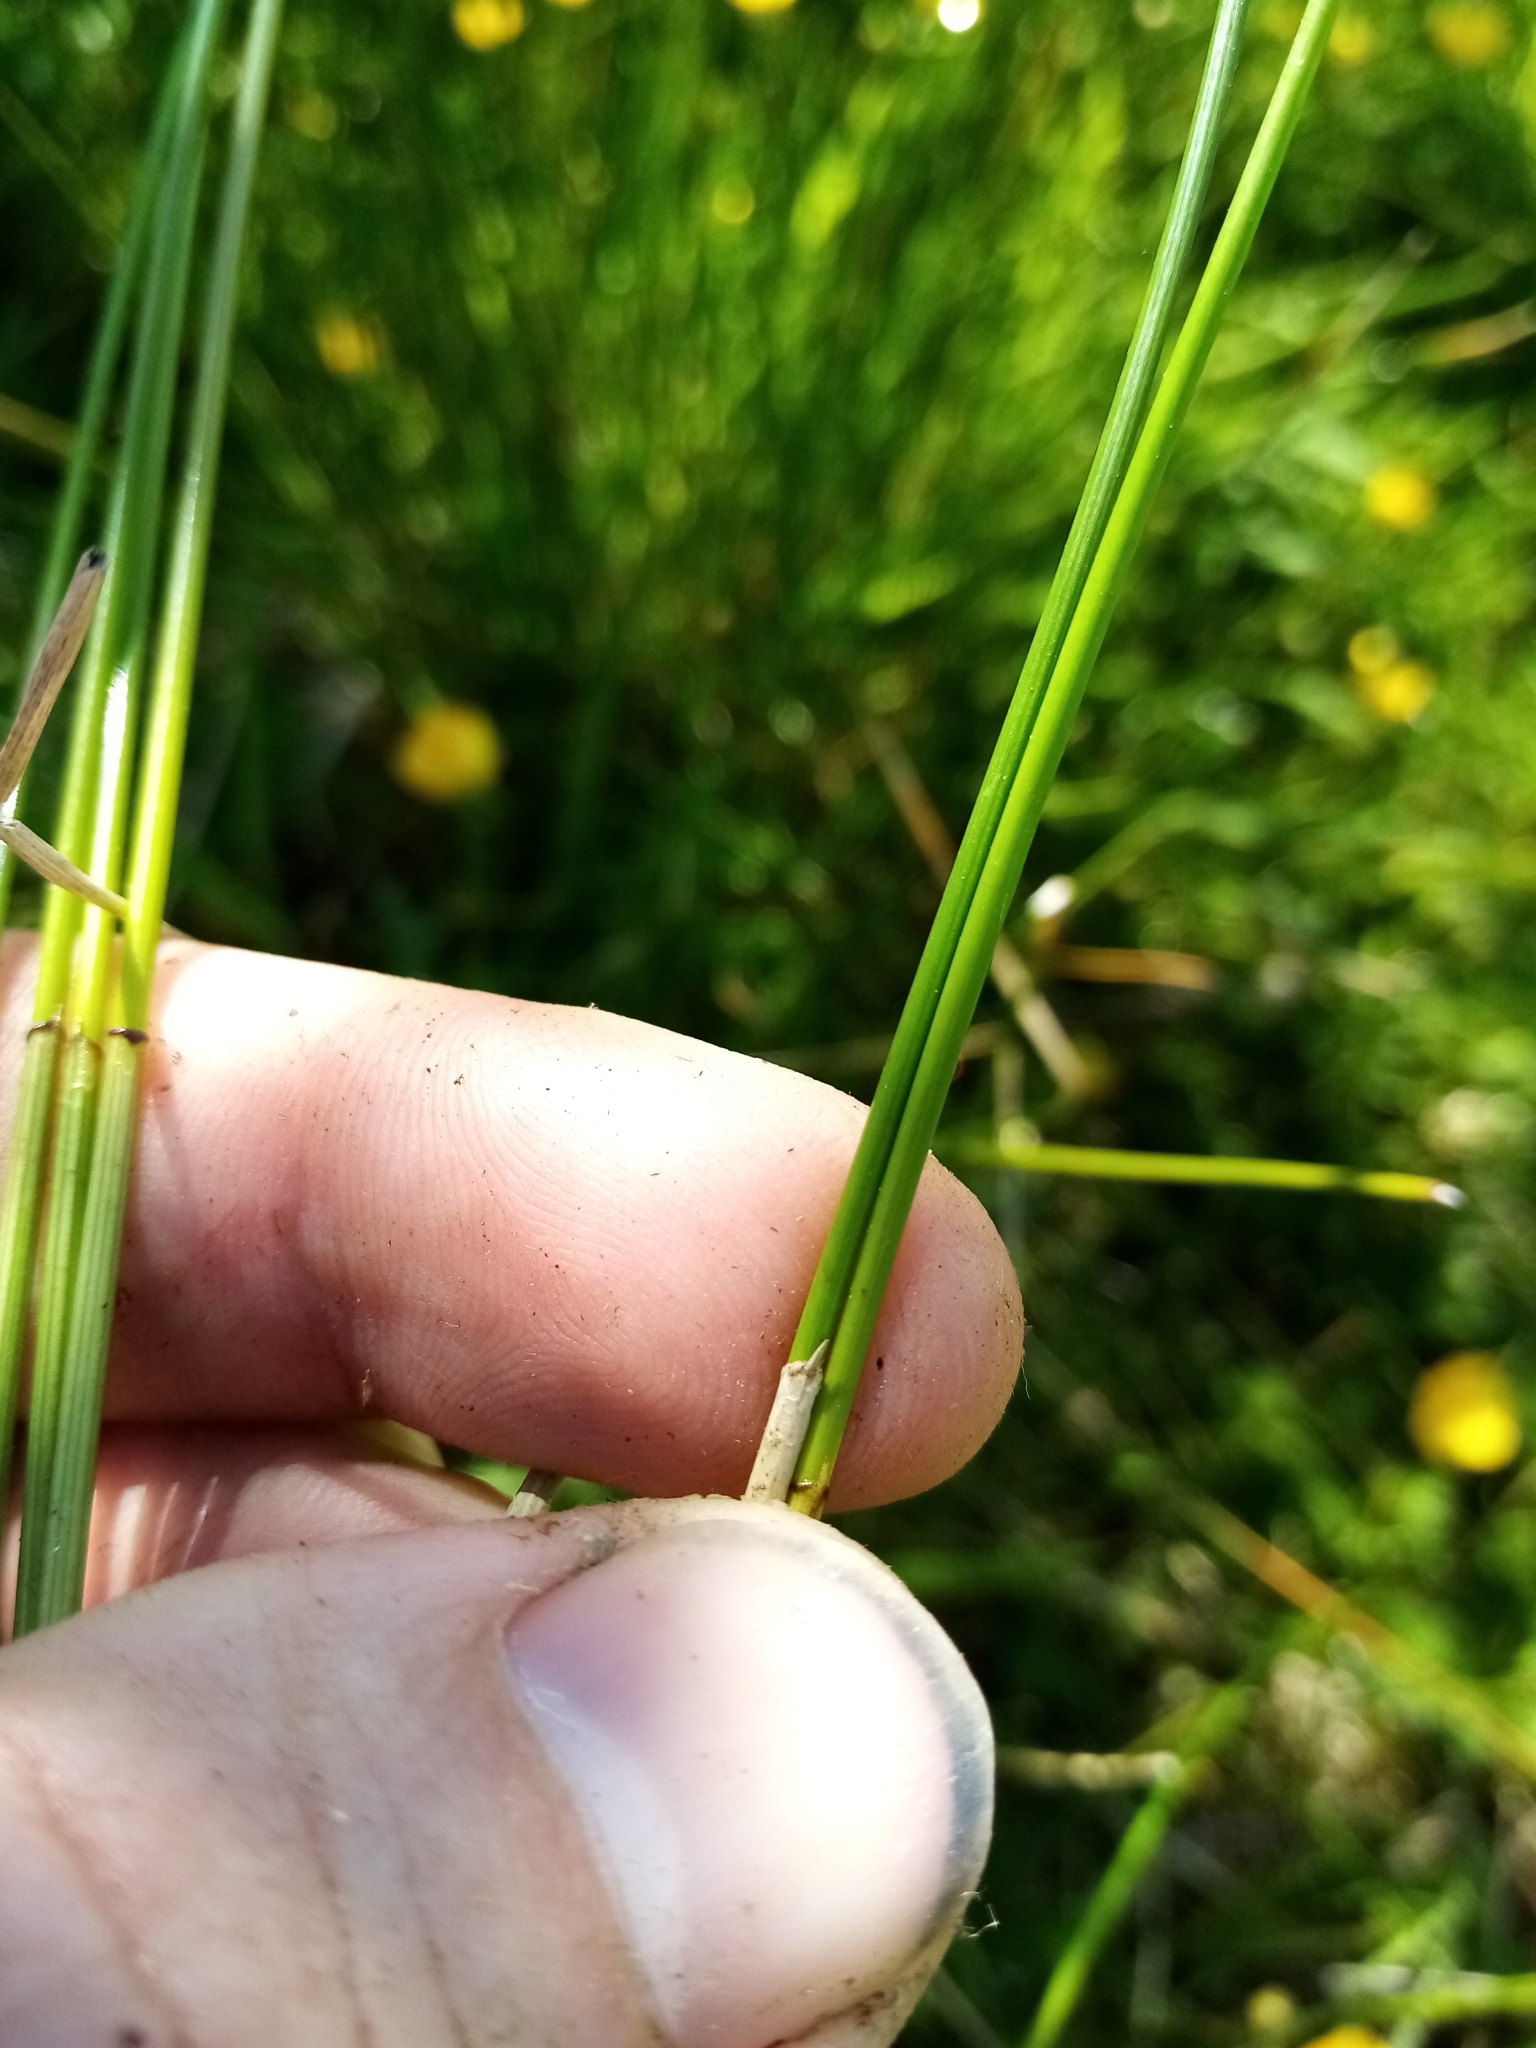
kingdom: Plantae
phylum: Tracheophyta
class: Liliopsida
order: Poales
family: Cyperaceae
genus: Eleocharis
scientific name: Eleocharis acuta
